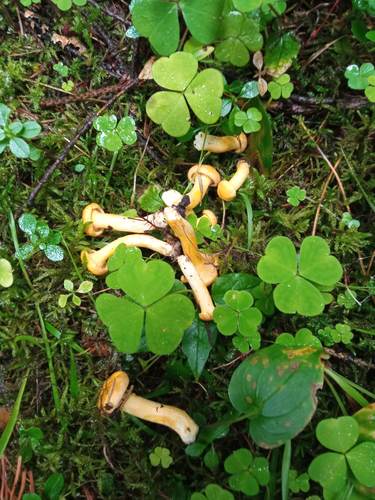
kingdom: Fungi
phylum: Basidiomycota
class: Agaricomycetes
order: Cantharellales
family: Hydnaceae
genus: Cantharellus
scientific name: Cantharellus cibarius
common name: Chanterelle
